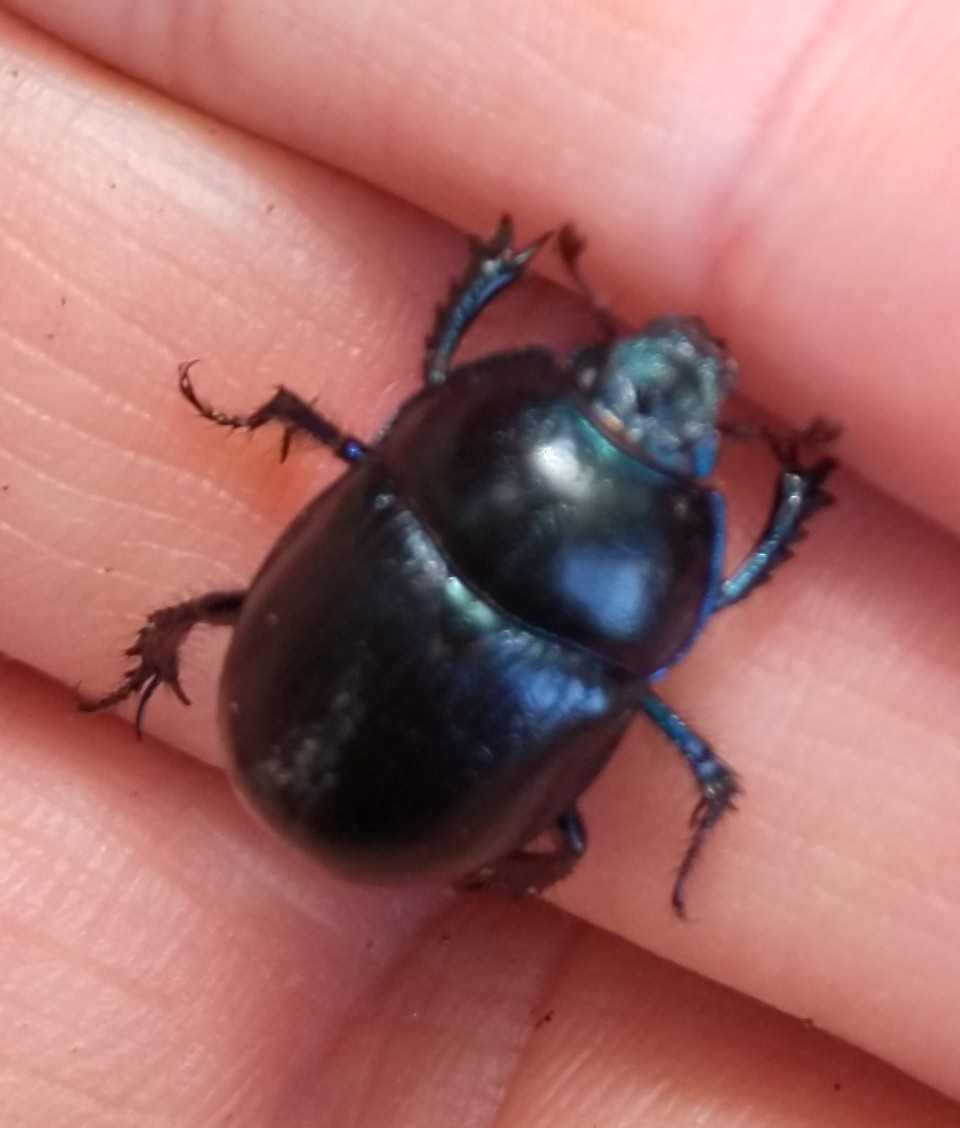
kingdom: Animalia
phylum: Arthropoda
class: Insecta
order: Coleoptera
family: Geotrupidae
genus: Anoplotrupes
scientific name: Anoplotrupes stercorosus
